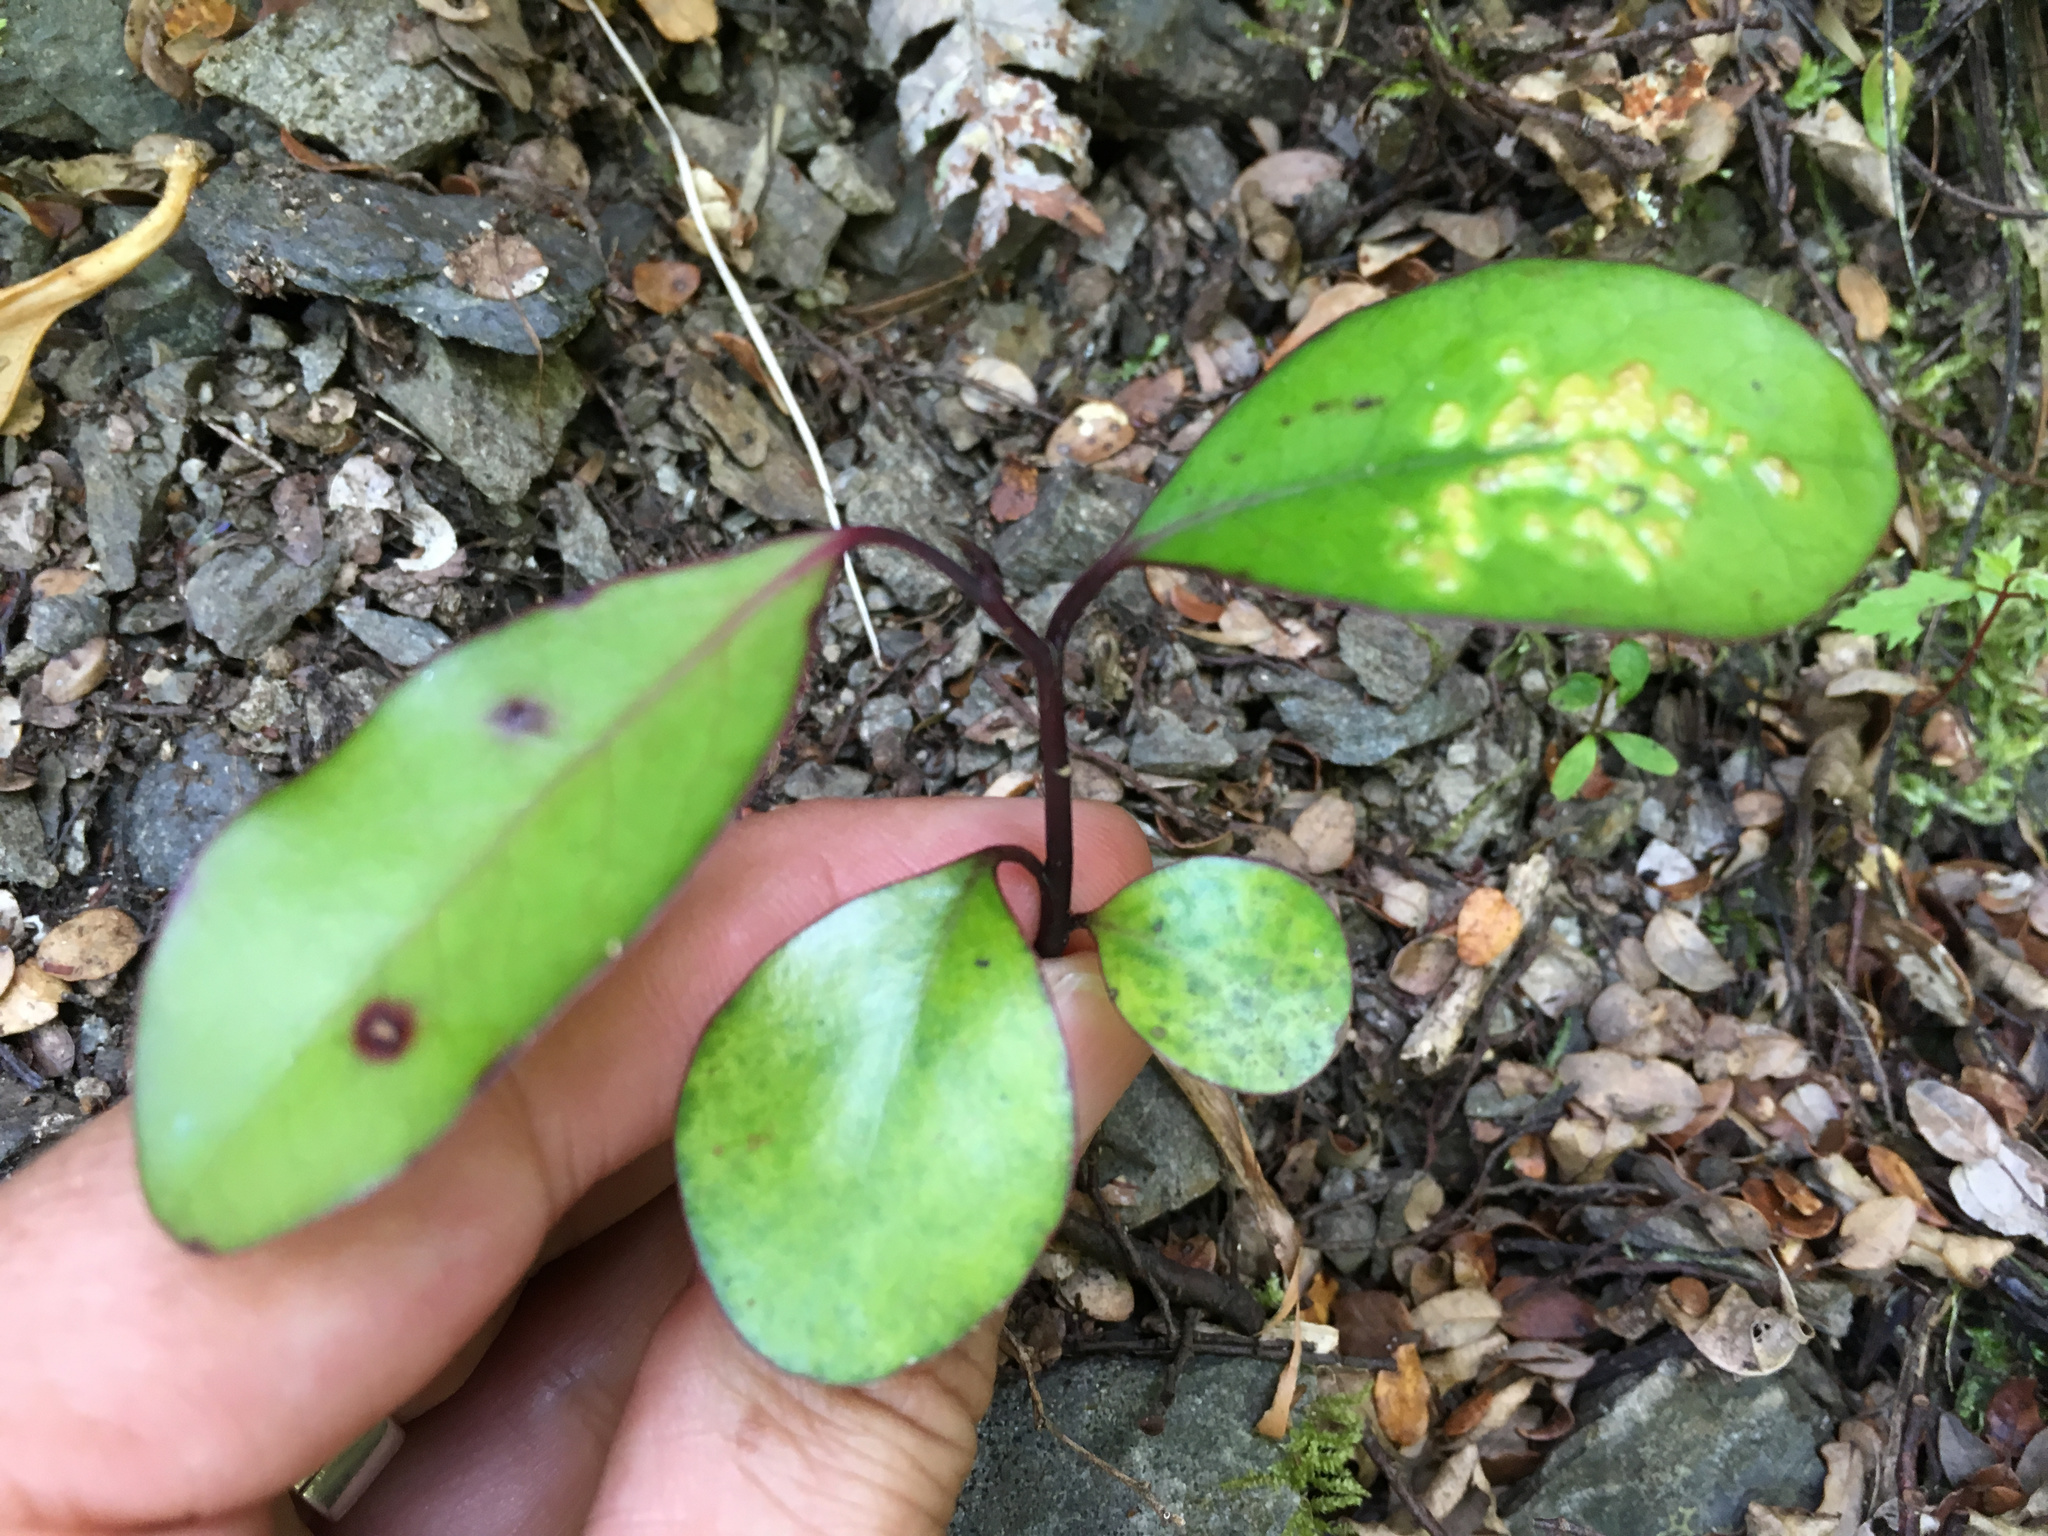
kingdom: Plantae
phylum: Tracheophyta
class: Magnoliopsida
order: Canellales
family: Winteraceae
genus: Pseudowintera
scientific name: Pseudowintera colorata
